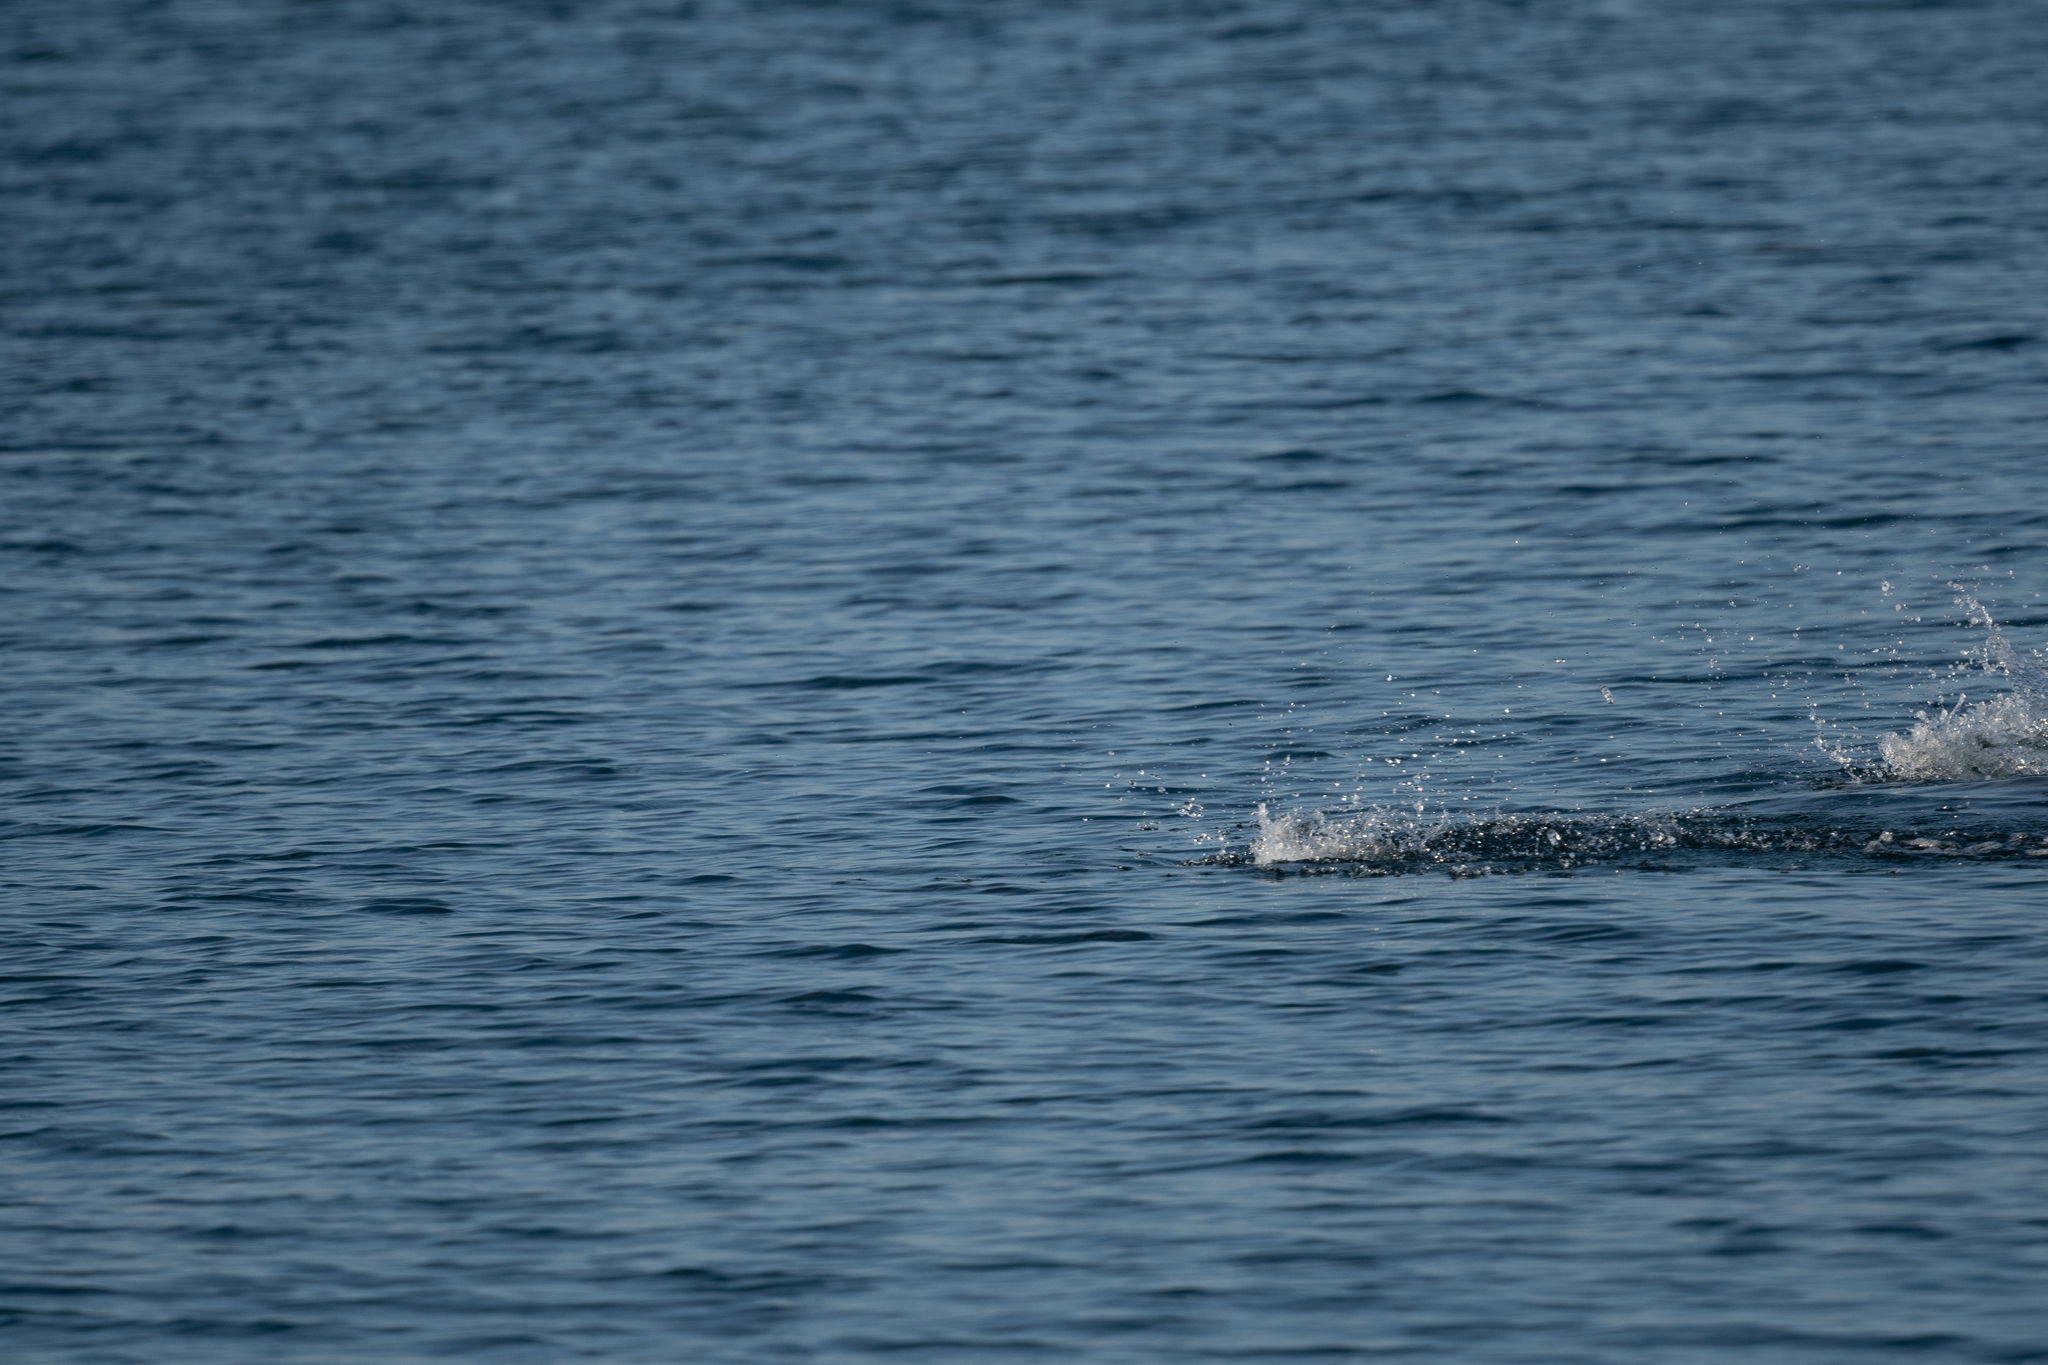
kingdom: Animalia
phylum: Chordata
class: Mammalia
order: Carnivora
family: Otariidae
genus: Zalophus
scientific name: Zalophus californianus
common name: California sea lion
